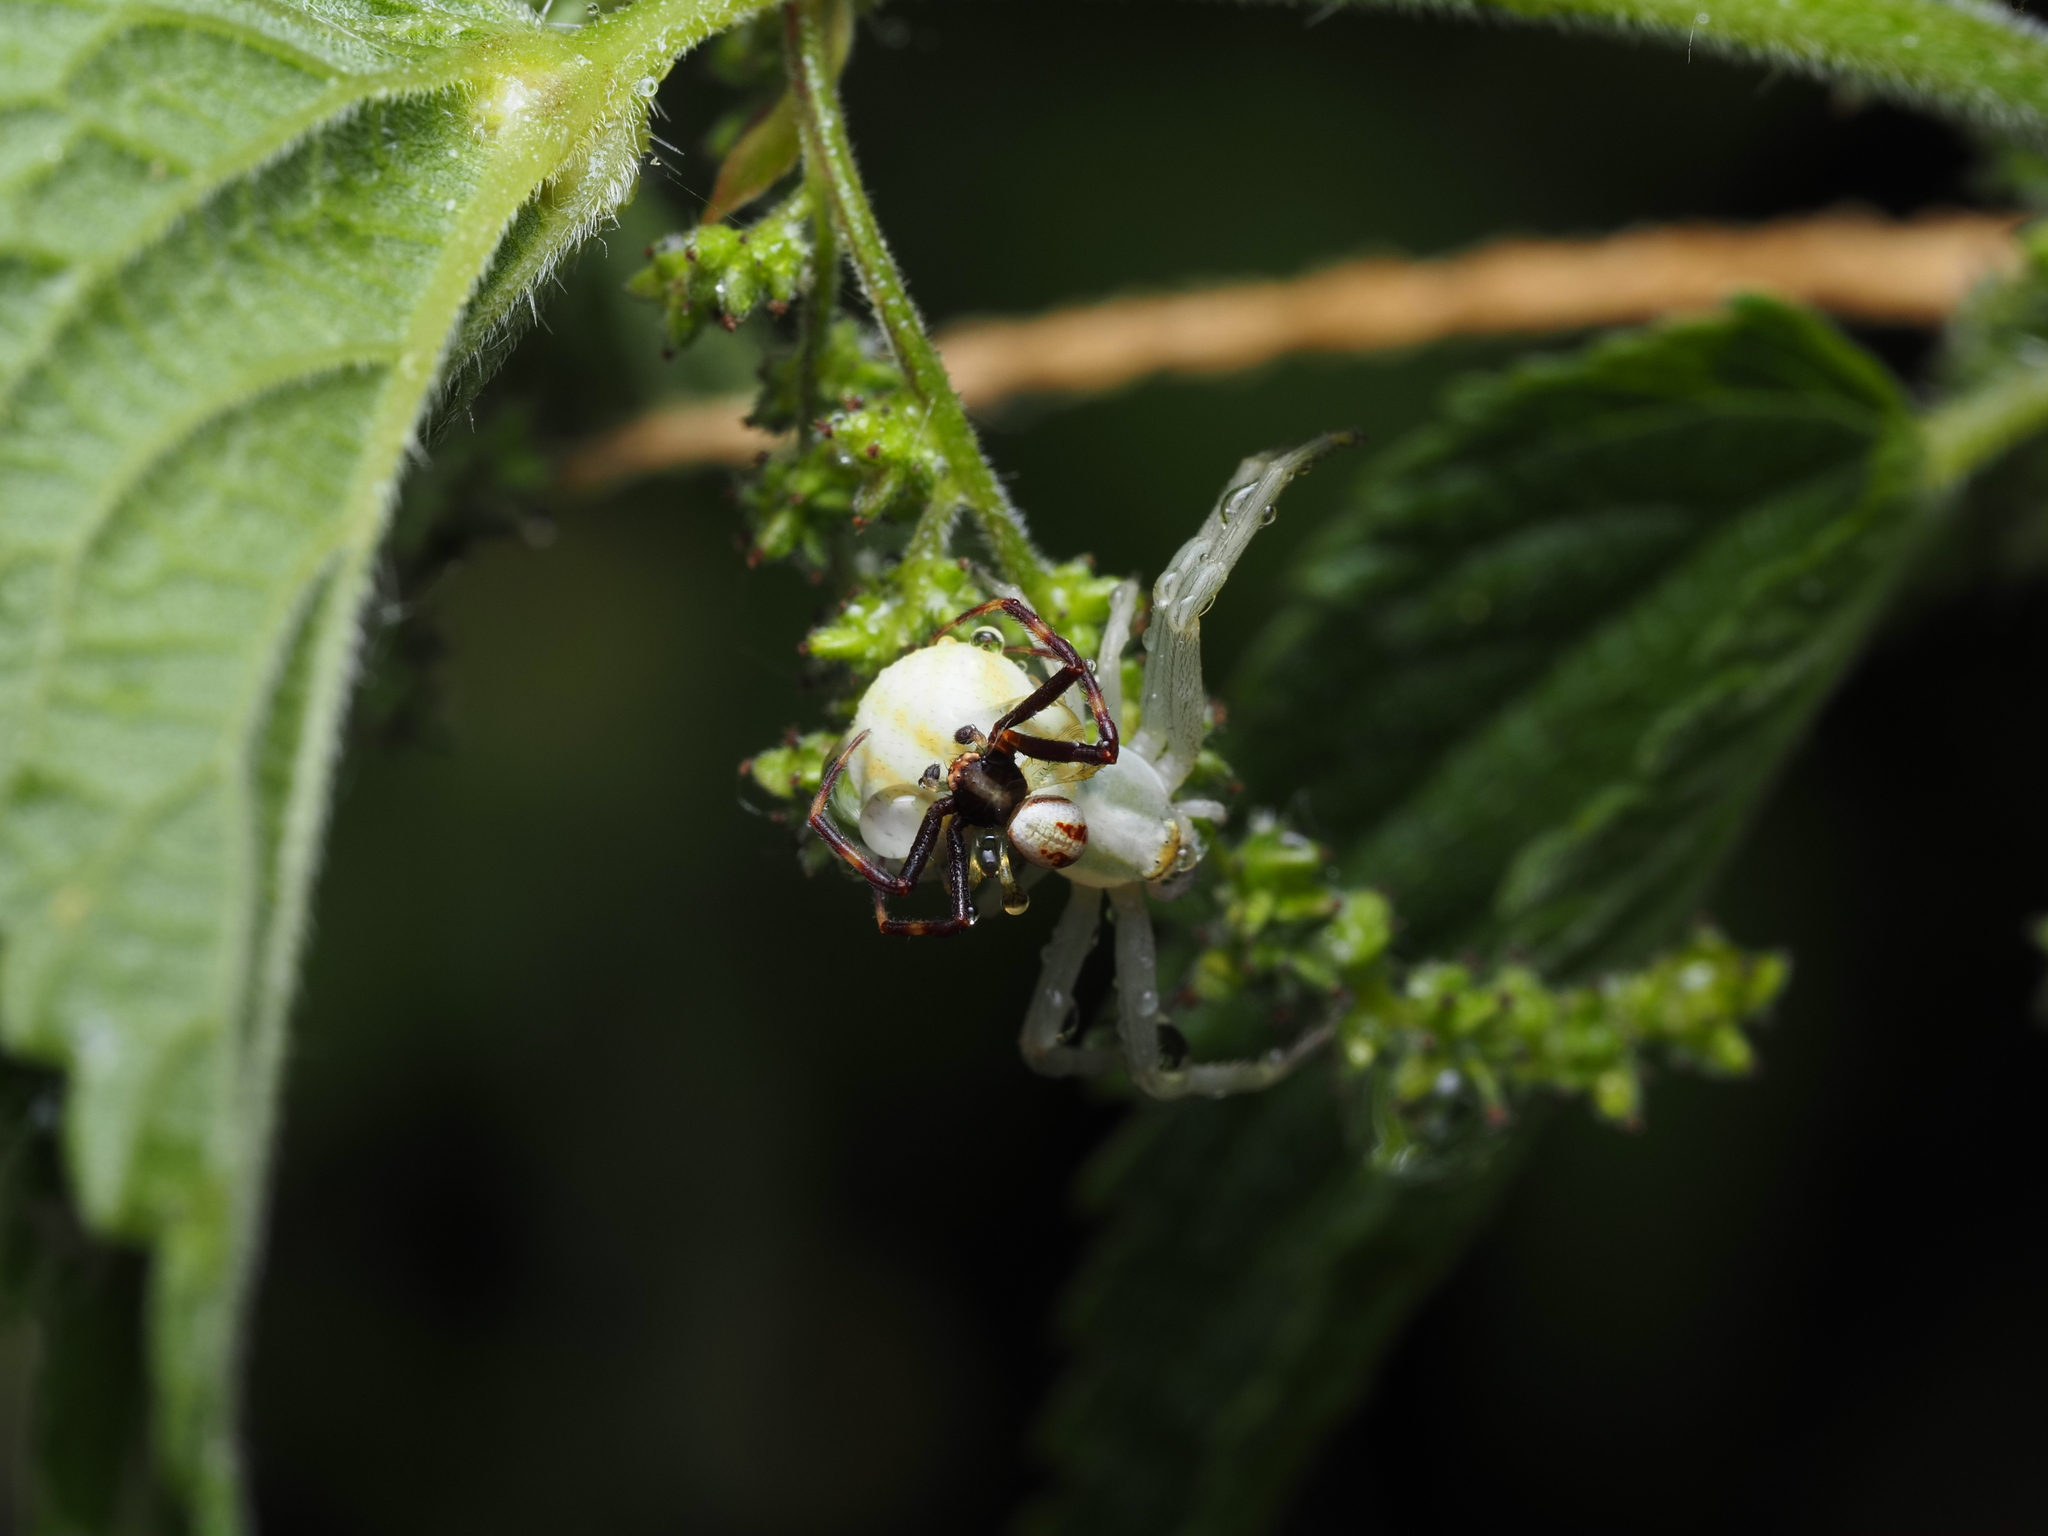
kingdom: Animalia
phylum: Arthropoda
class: Arachnida
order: Araneae
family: Thomisidae
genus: Misumena
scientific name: Misumena vatia
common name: Goldenrod crab spider
